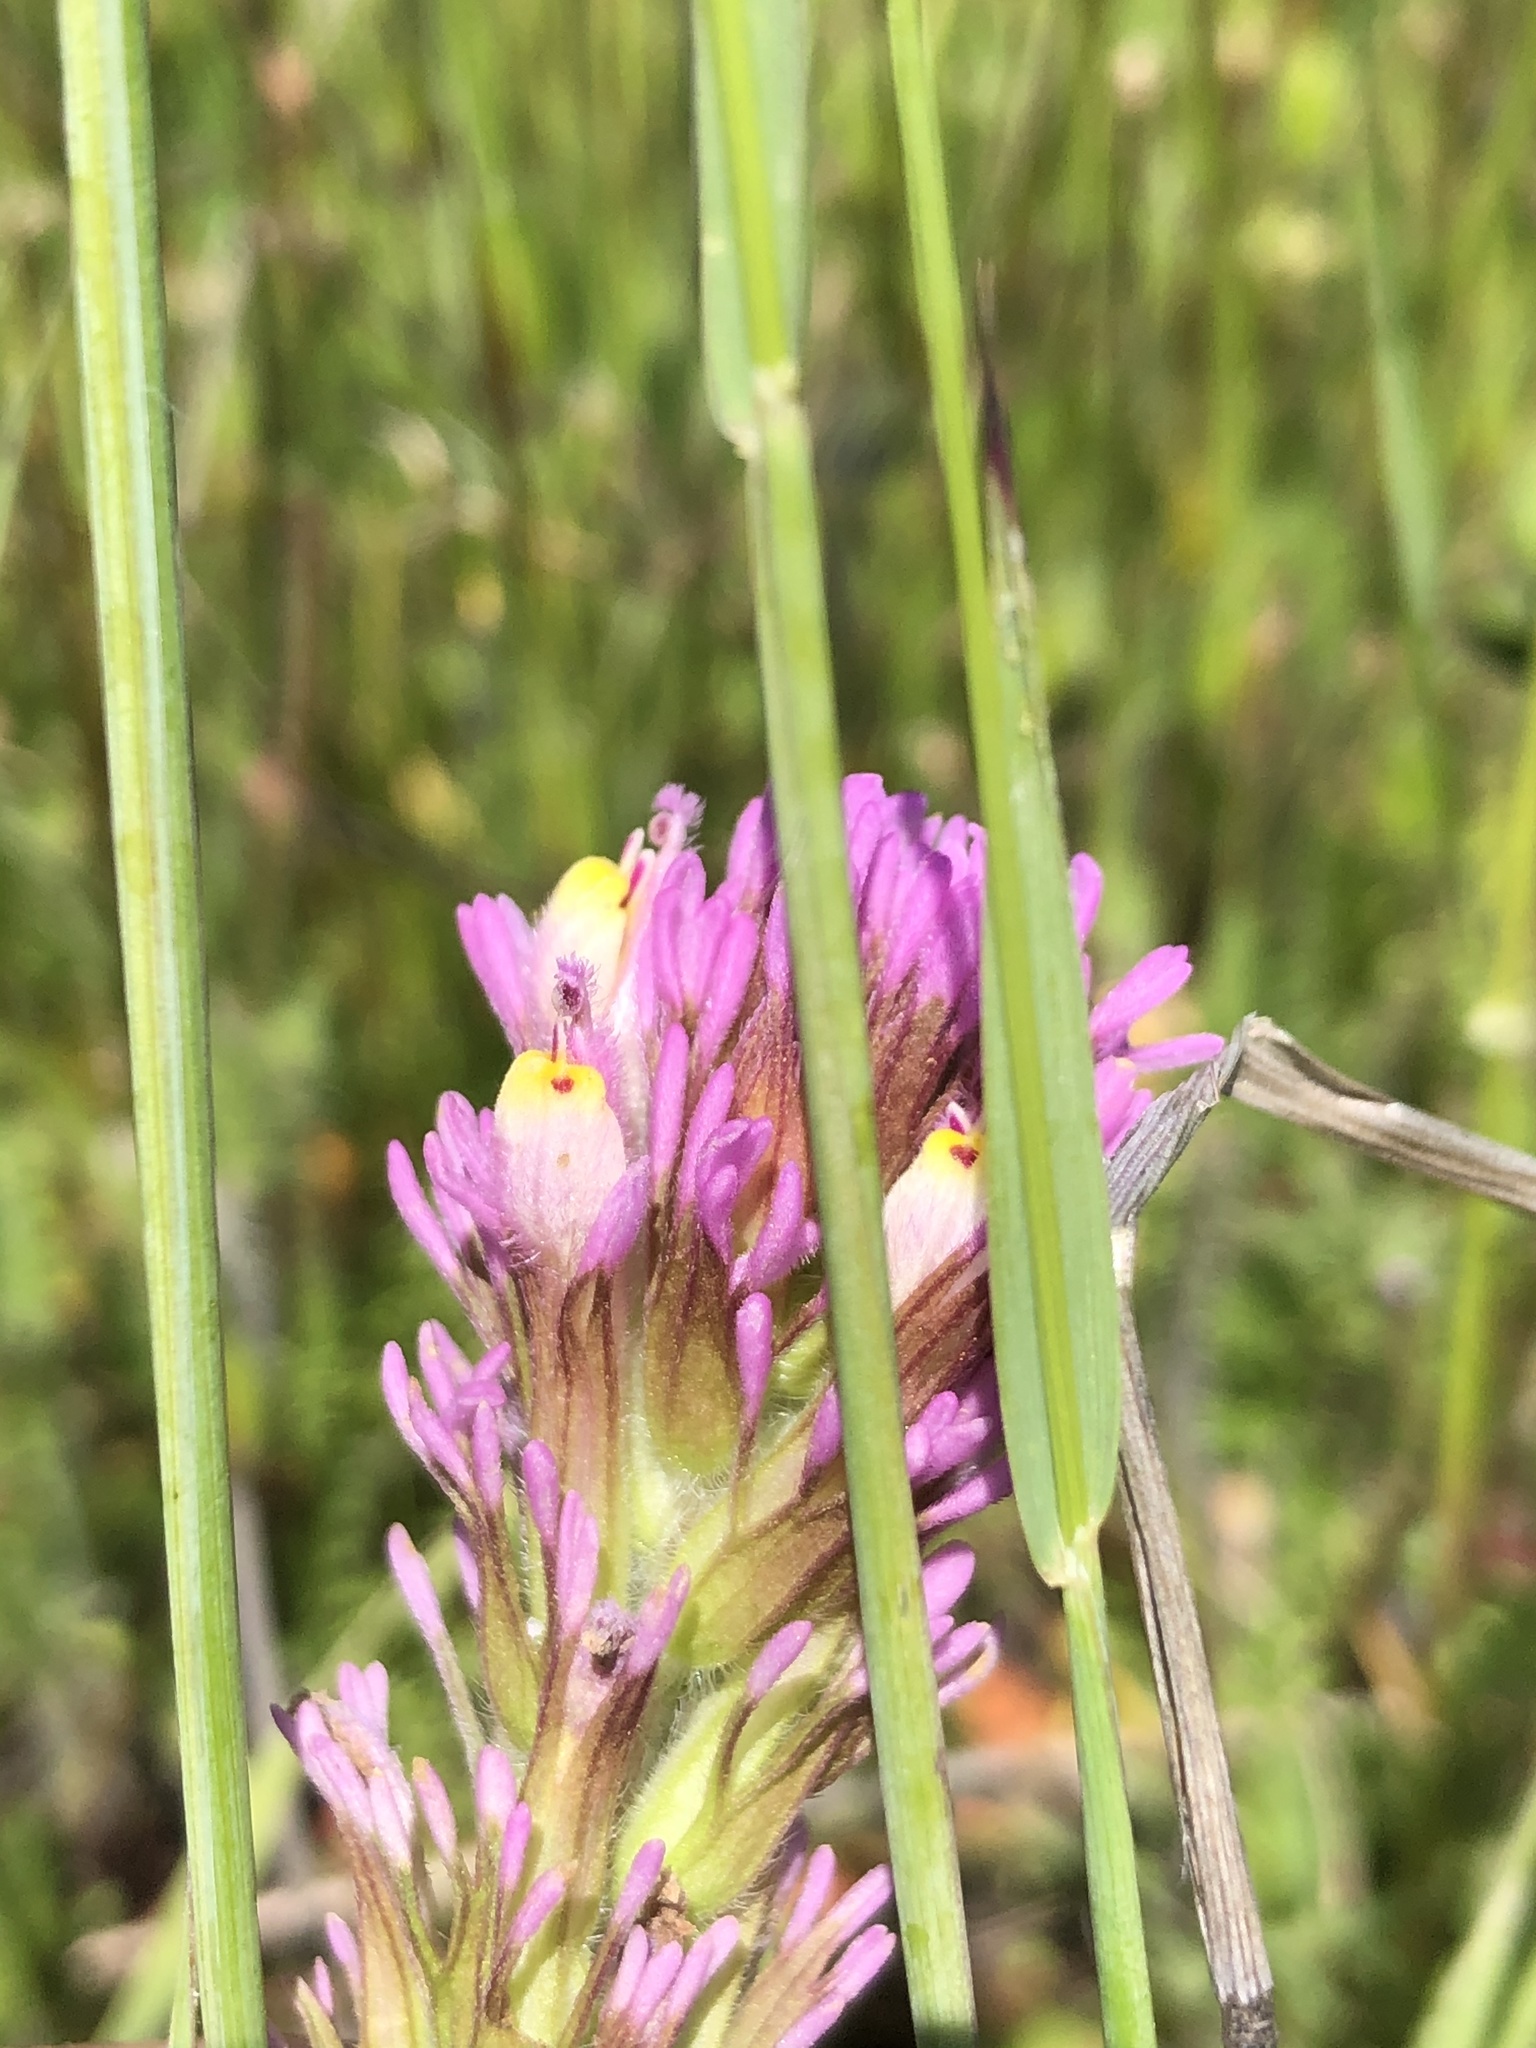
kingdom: Plantae
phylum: Tracheophyta
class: Magnoliopsida
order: Lamiales
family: Orobanchaceae
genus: Castilleja
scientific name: Castilleja exserta
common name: Purple owl-clover
